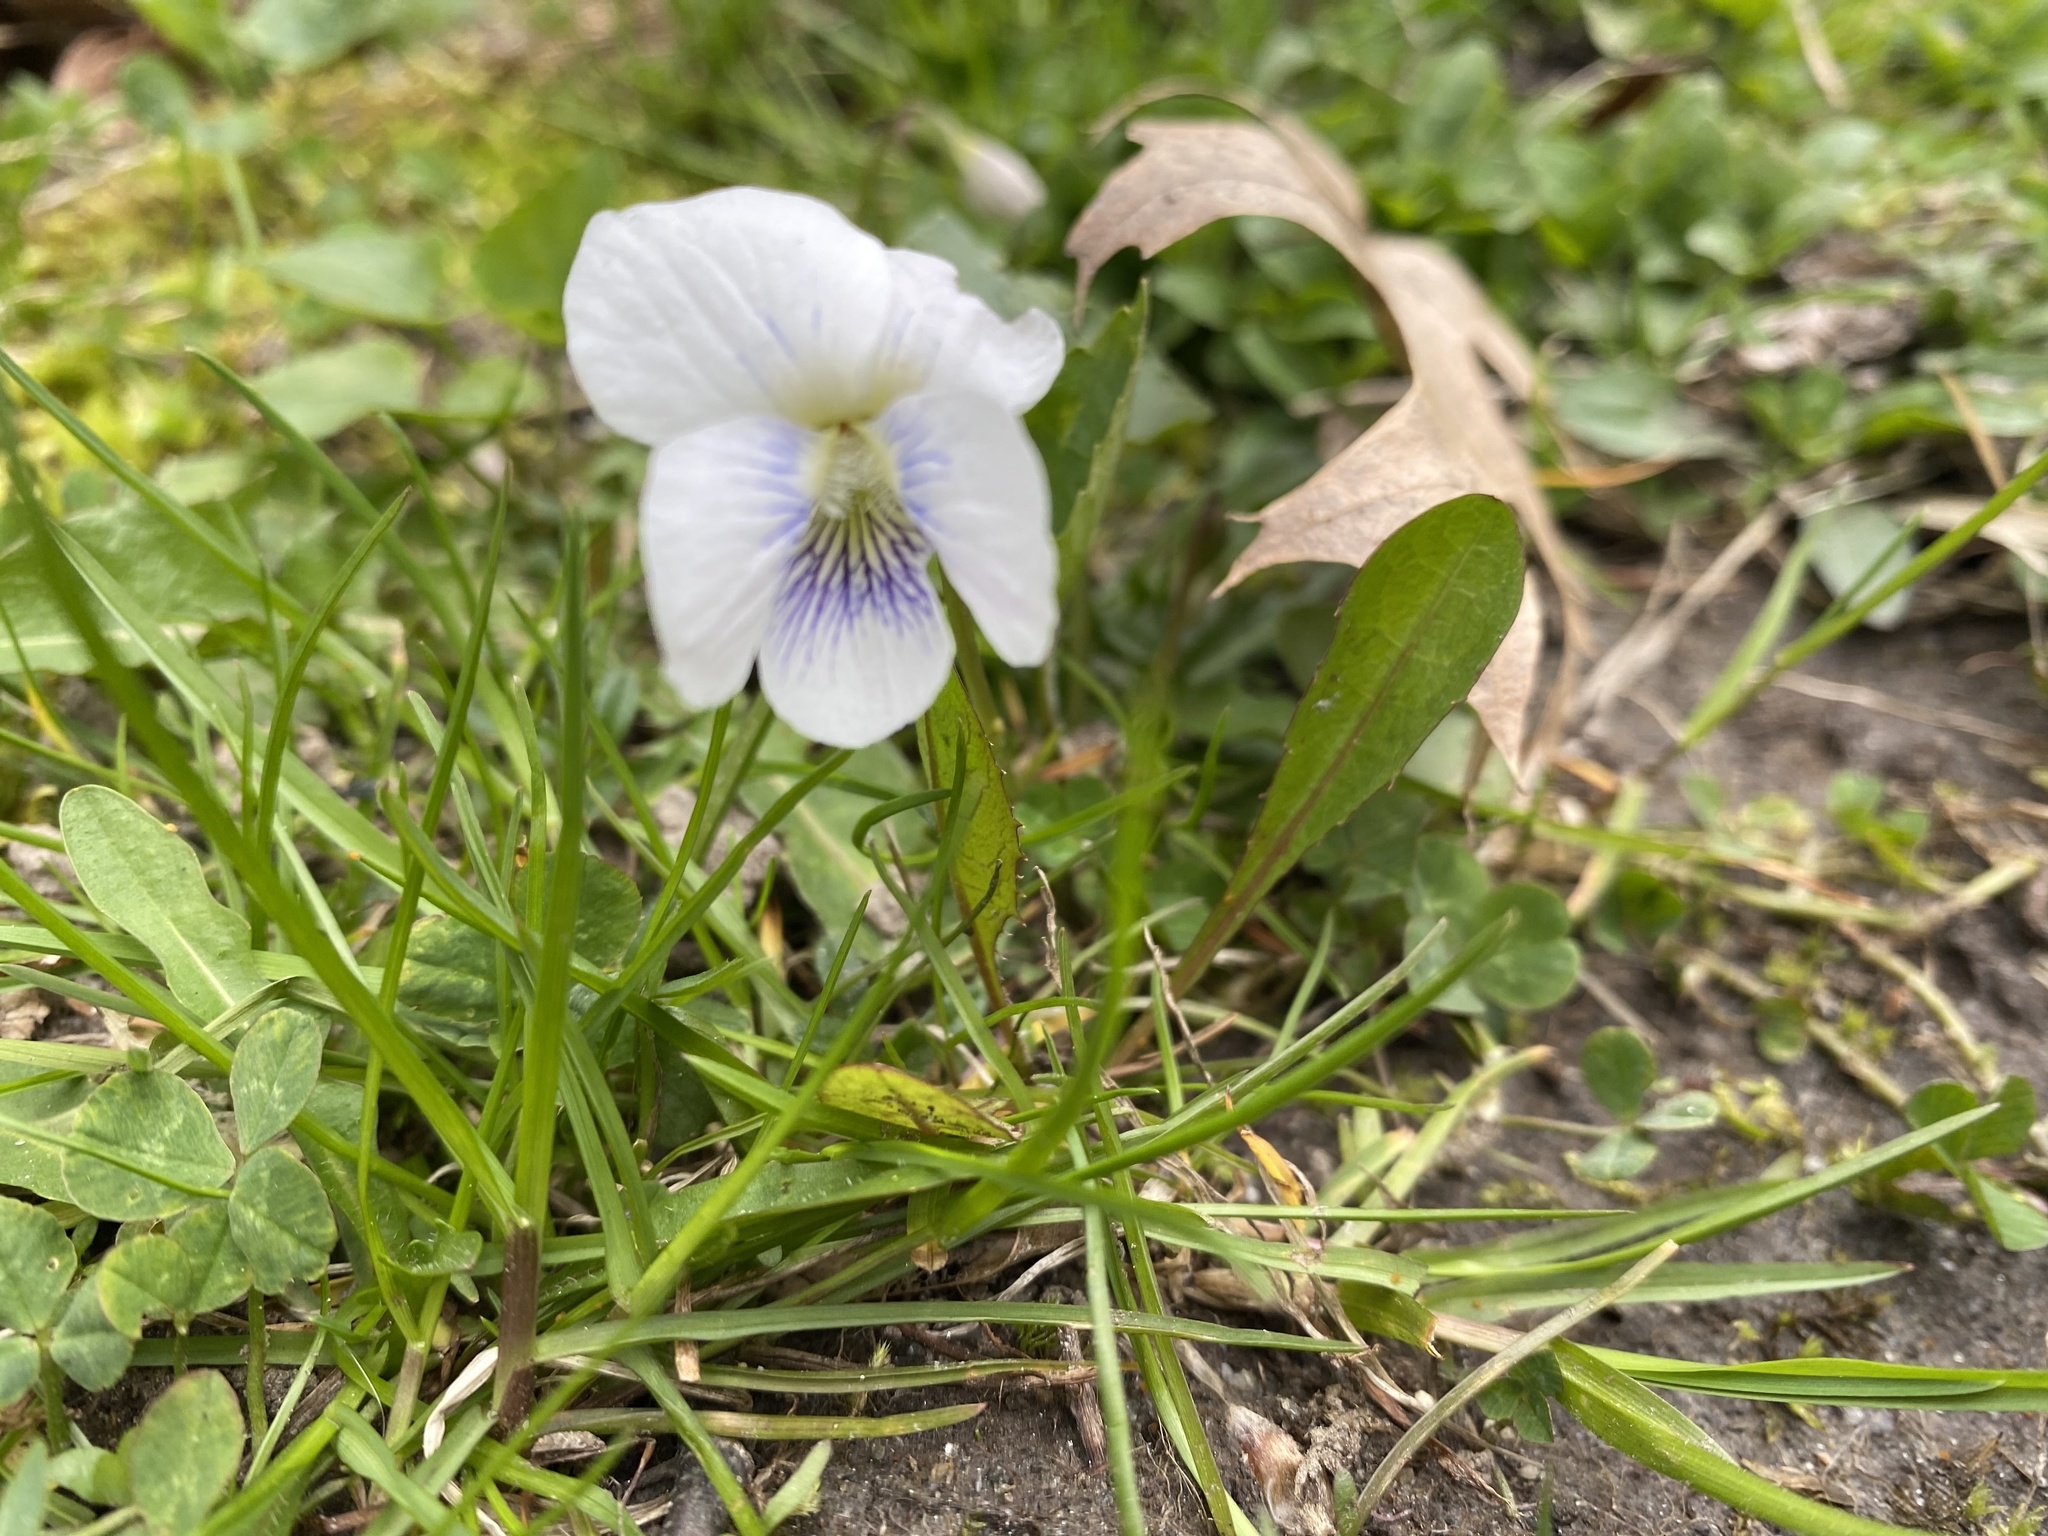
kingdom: Plantae
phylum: Tracheophyta
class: Magnoliopsida
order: Malpighiales
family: Violaceae
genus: Viola
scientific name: Viola sororia
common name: Dooryard violet
